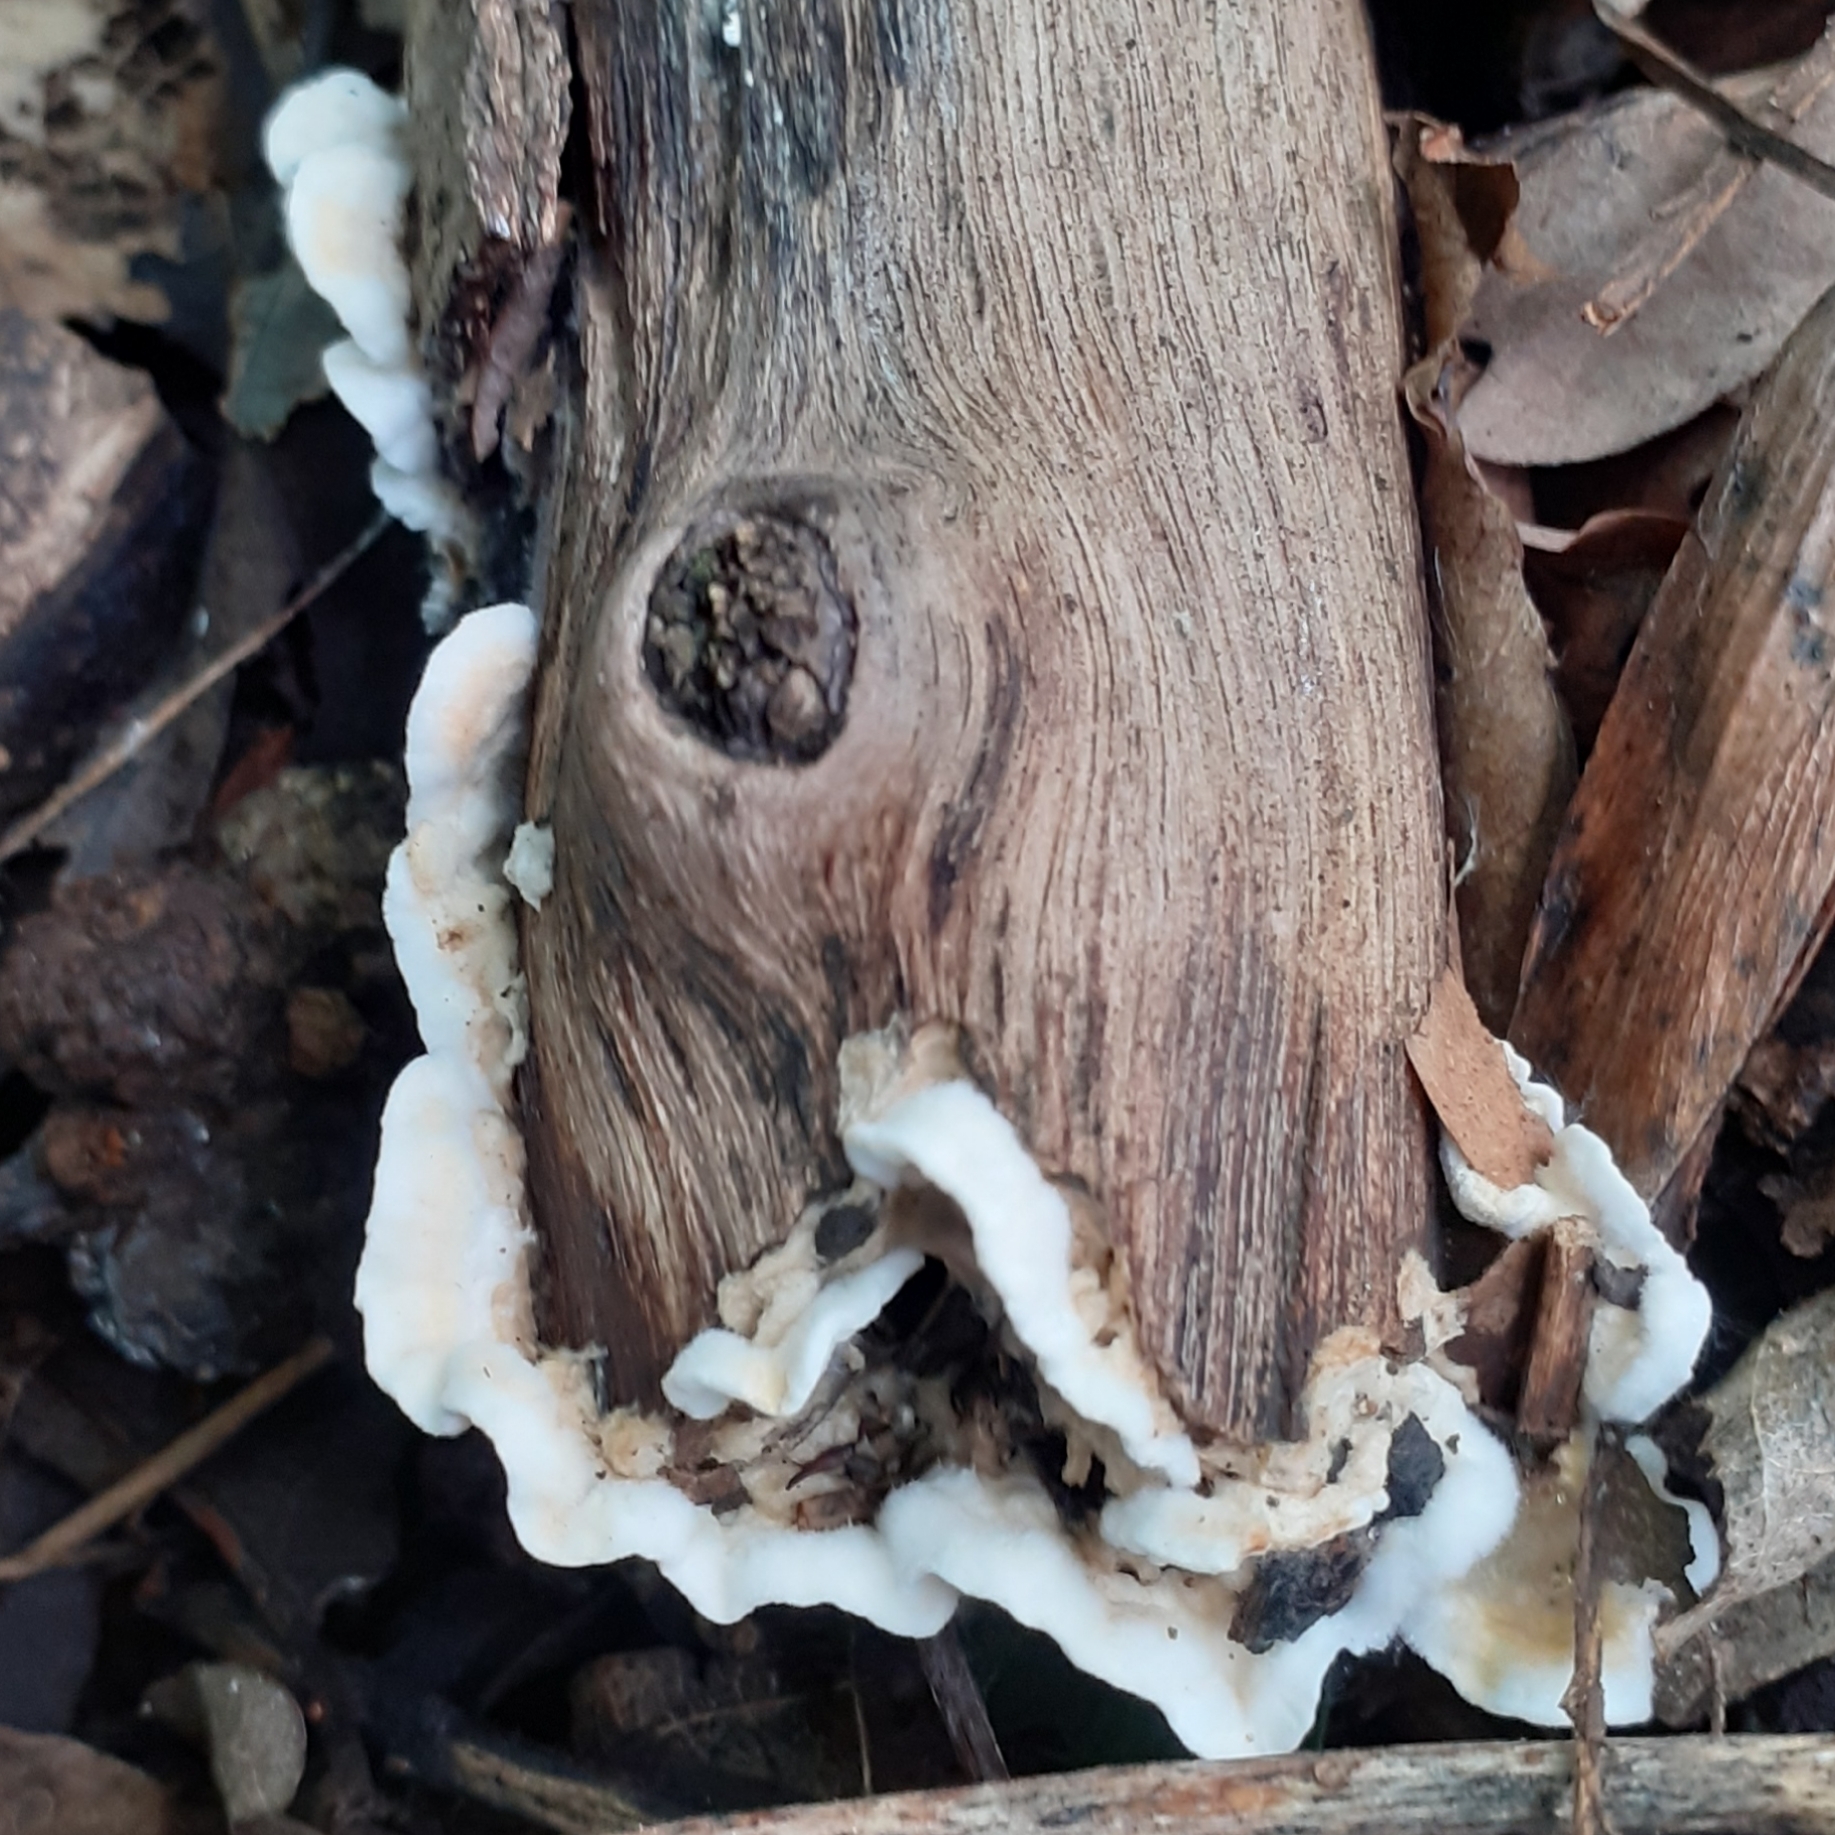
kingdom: Fungi
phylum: Basidiomycota
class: Agaricomycetes
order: Polyporales
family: Phanerochaetaceae
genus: Bjerkandera
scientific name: Bjerkandera adusta
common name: Smoky bracket
